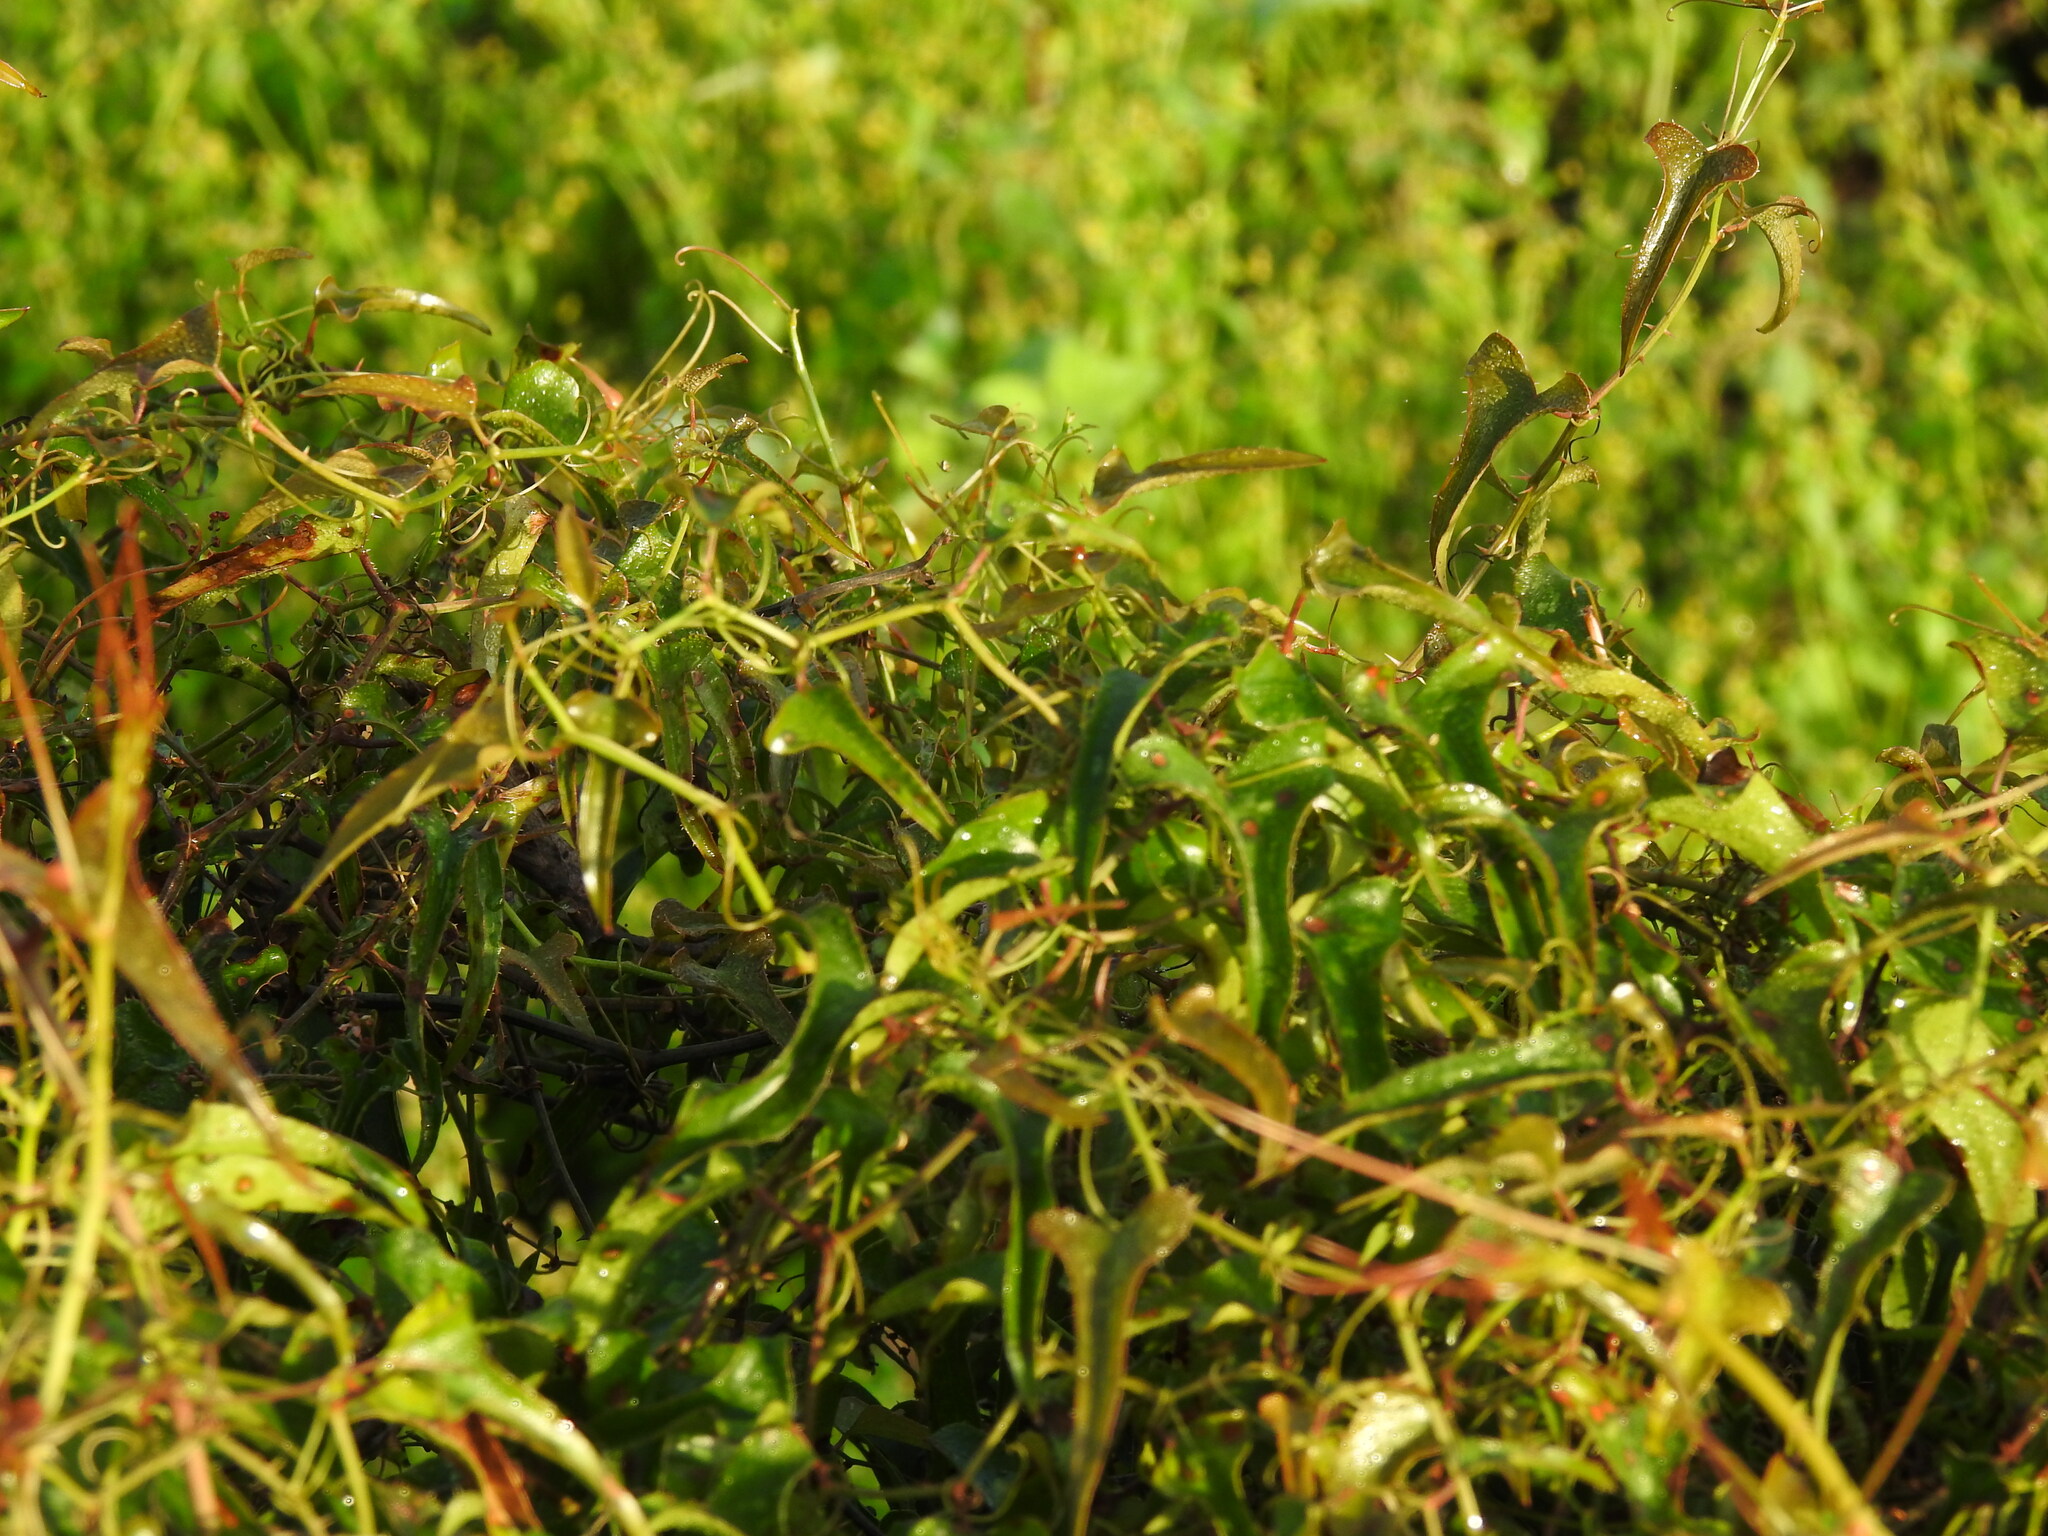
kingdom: Plantae
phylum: Tracheophyta
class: Liliopsida
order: Liliales
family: Smilacaceae
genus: Smilax
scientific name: Smilax aspera
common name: Common smilax
